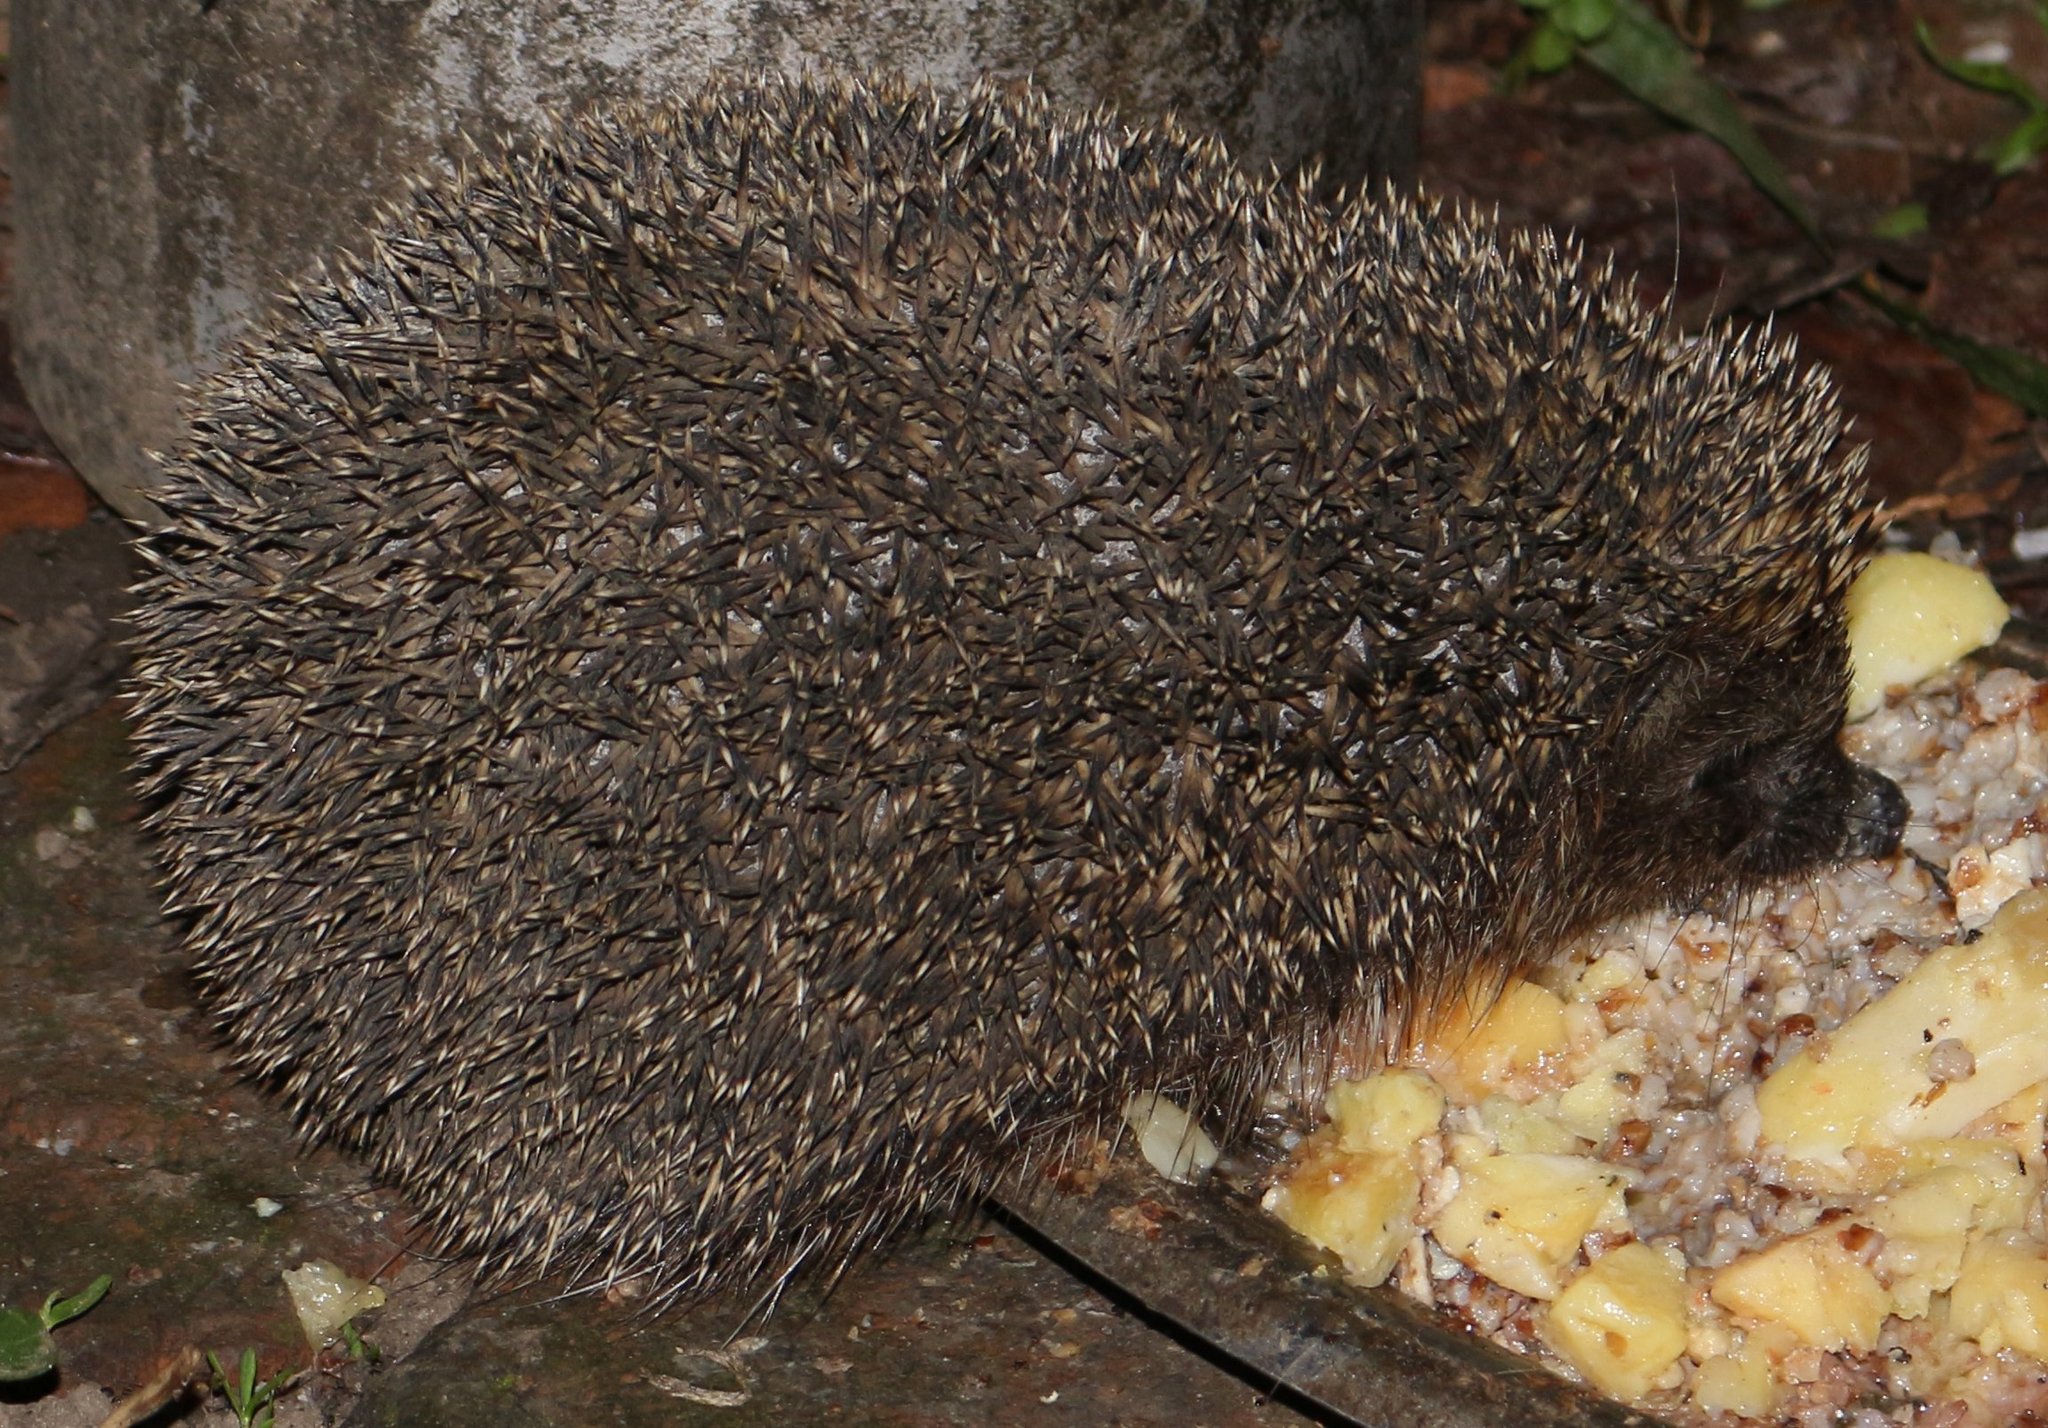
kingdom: Animalia
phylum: Chordata
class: Mammalia
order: Erinaceomorpha
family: Erinaceidae
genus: Erinaceus
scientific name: Erinaceus roumanicus
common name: Northern white-breasted hedgehog
